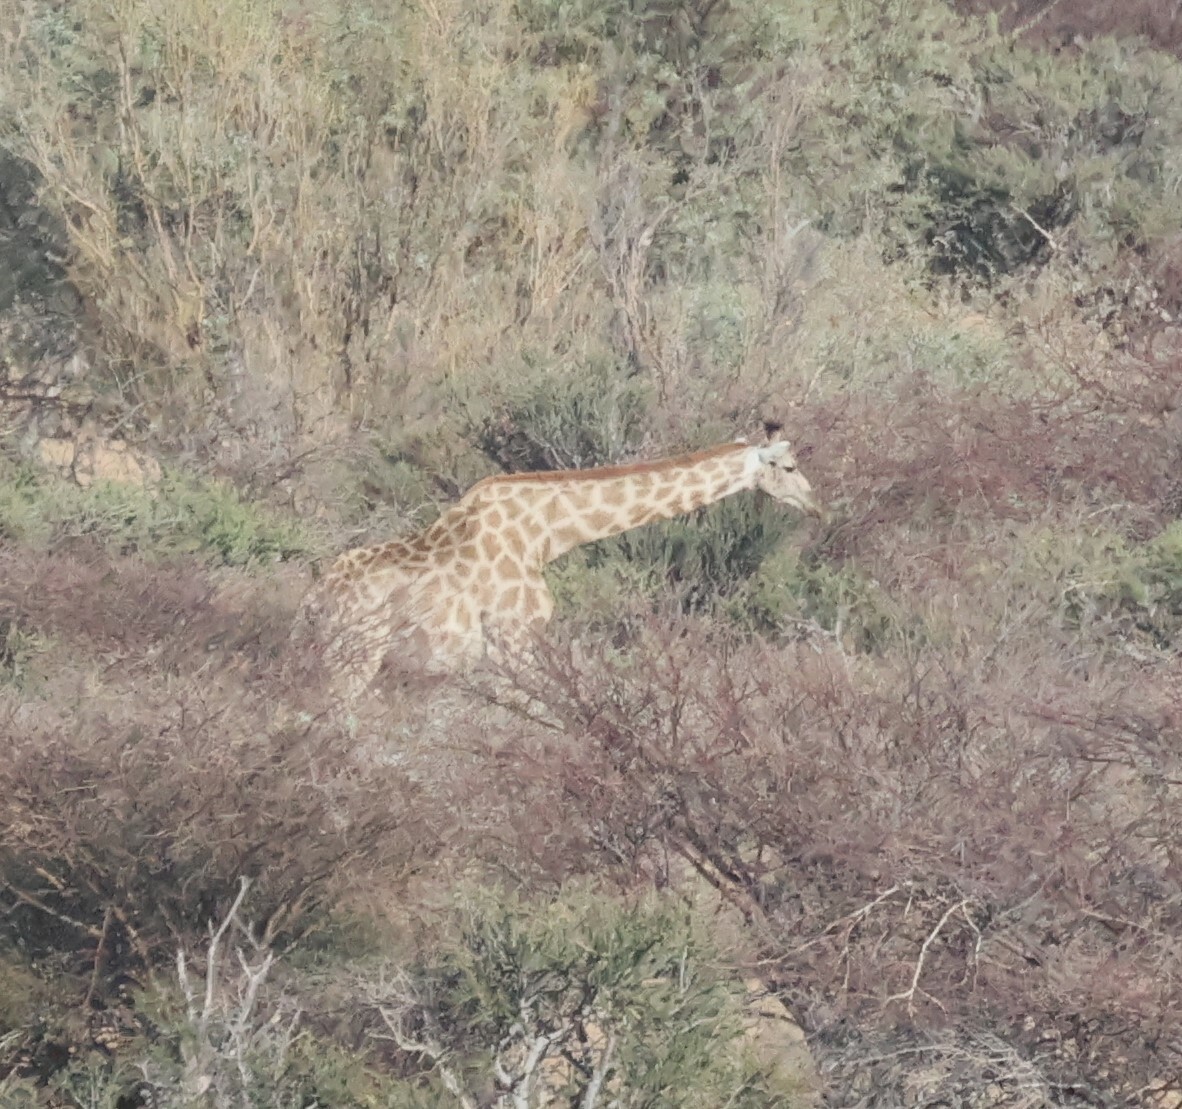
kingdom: Animalia
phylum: Chordata
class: Mammalia
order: Artiodactyla
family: Giraffidae
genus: Giraffa
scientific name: Giraffa giraffa
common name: Southern giraffe
